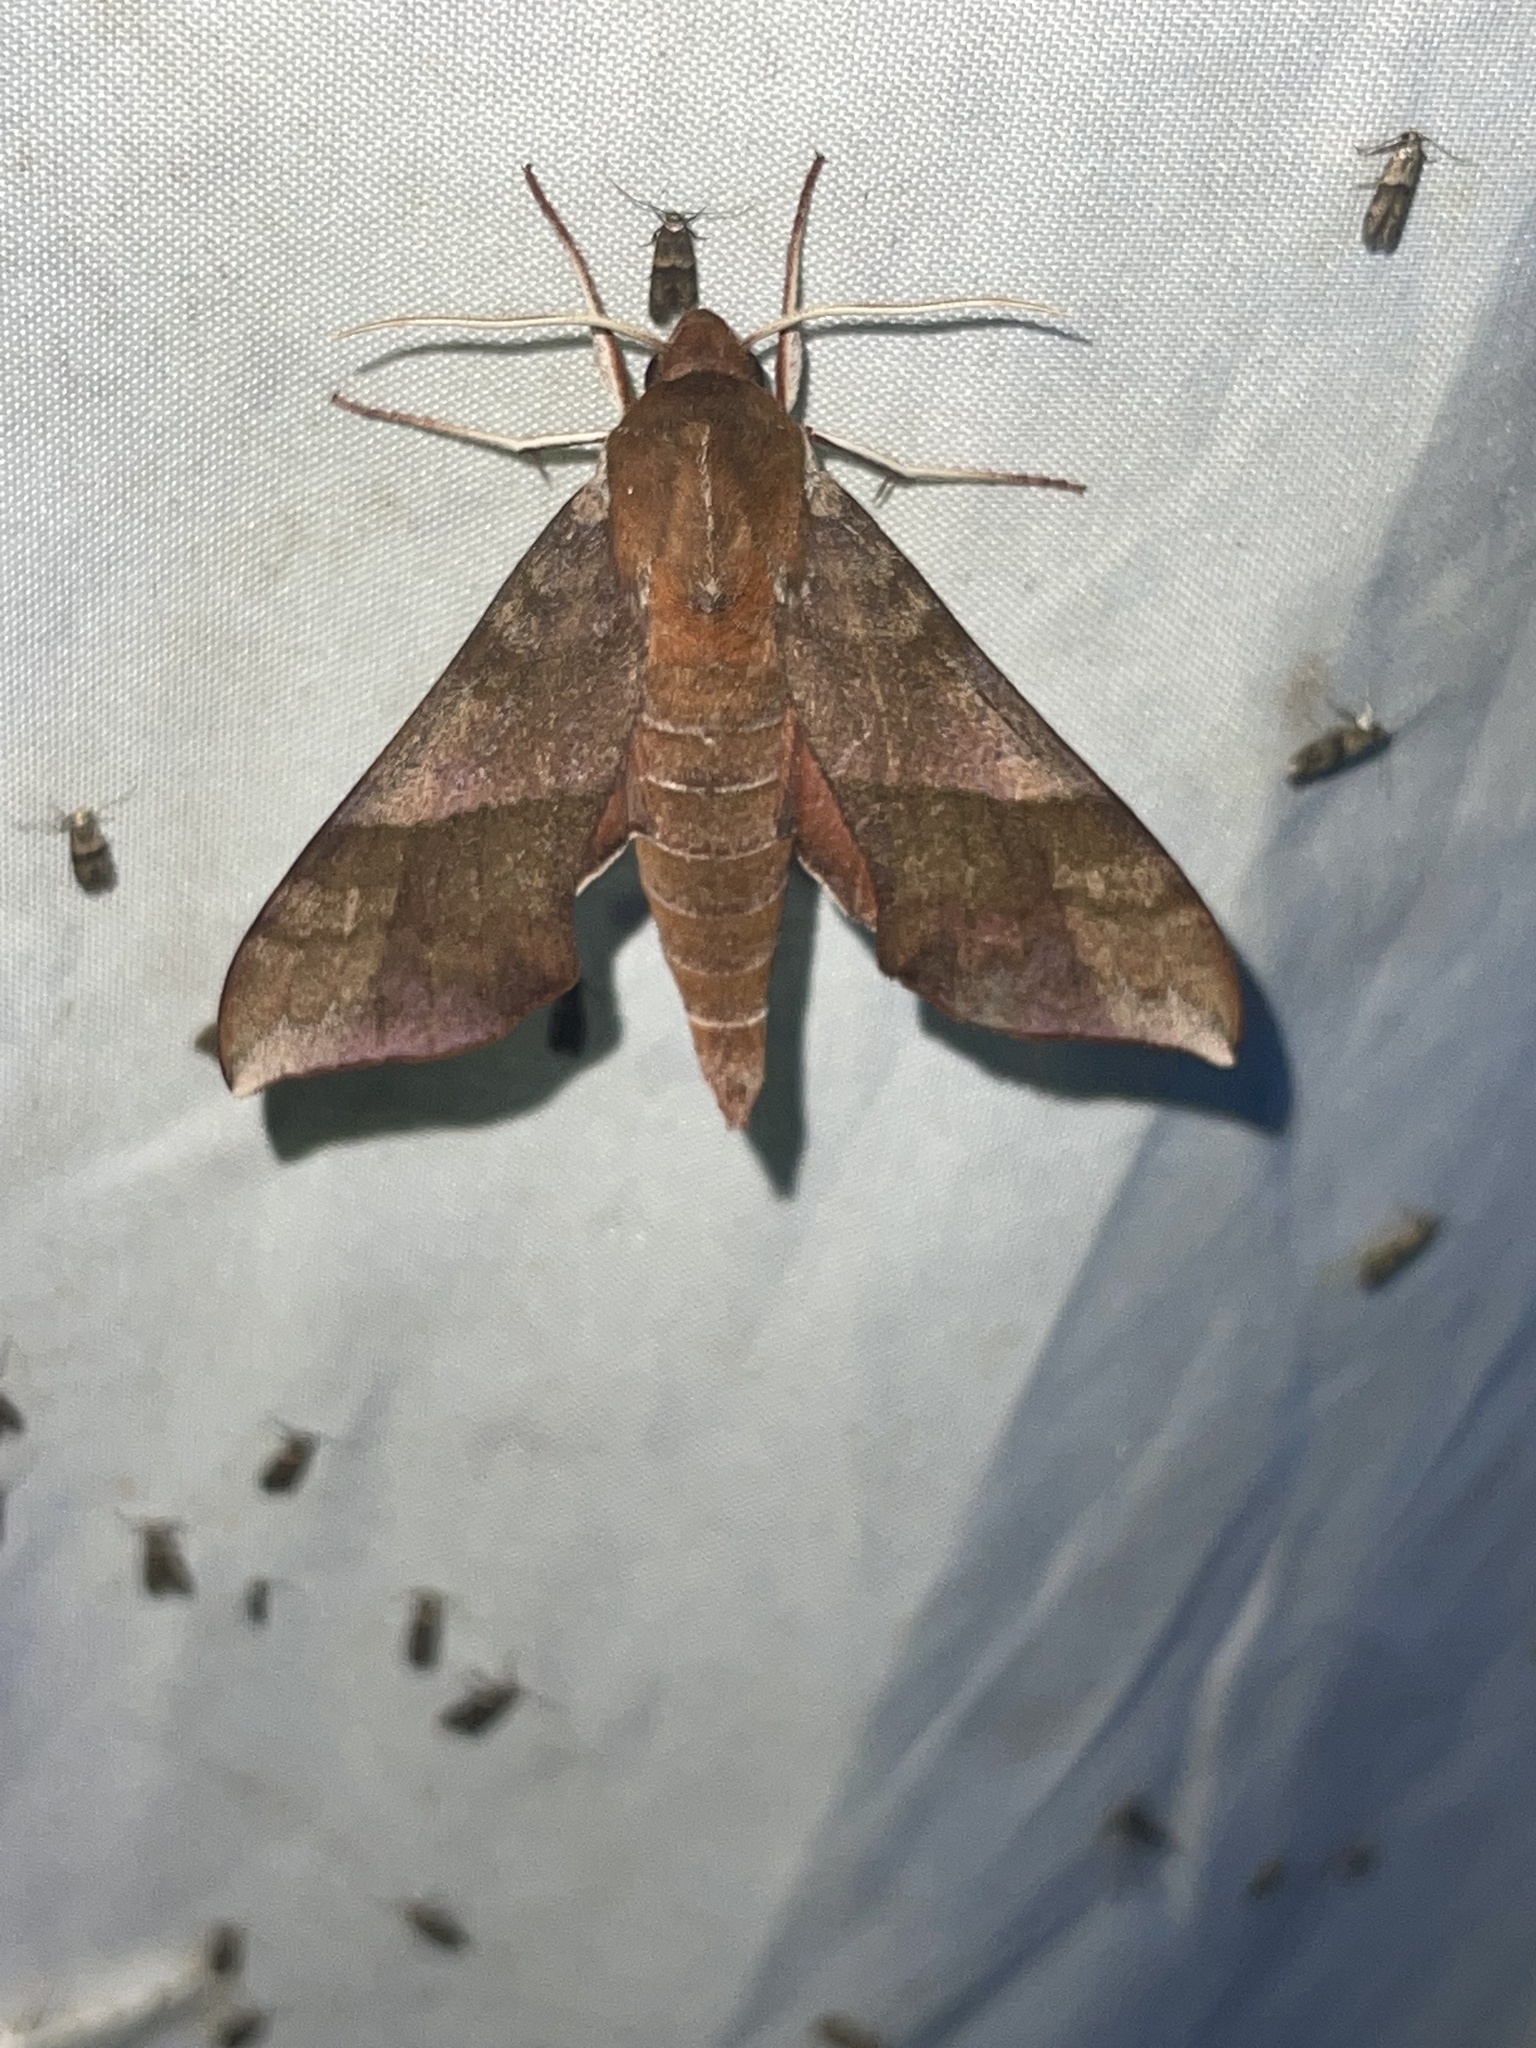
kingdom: Animalia
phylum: Arthropoda
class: Insecta
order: Lepidoptera
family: Sphingidae
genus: Darapsa
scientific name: Darapsa choerilus
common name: Azalea sphinx
